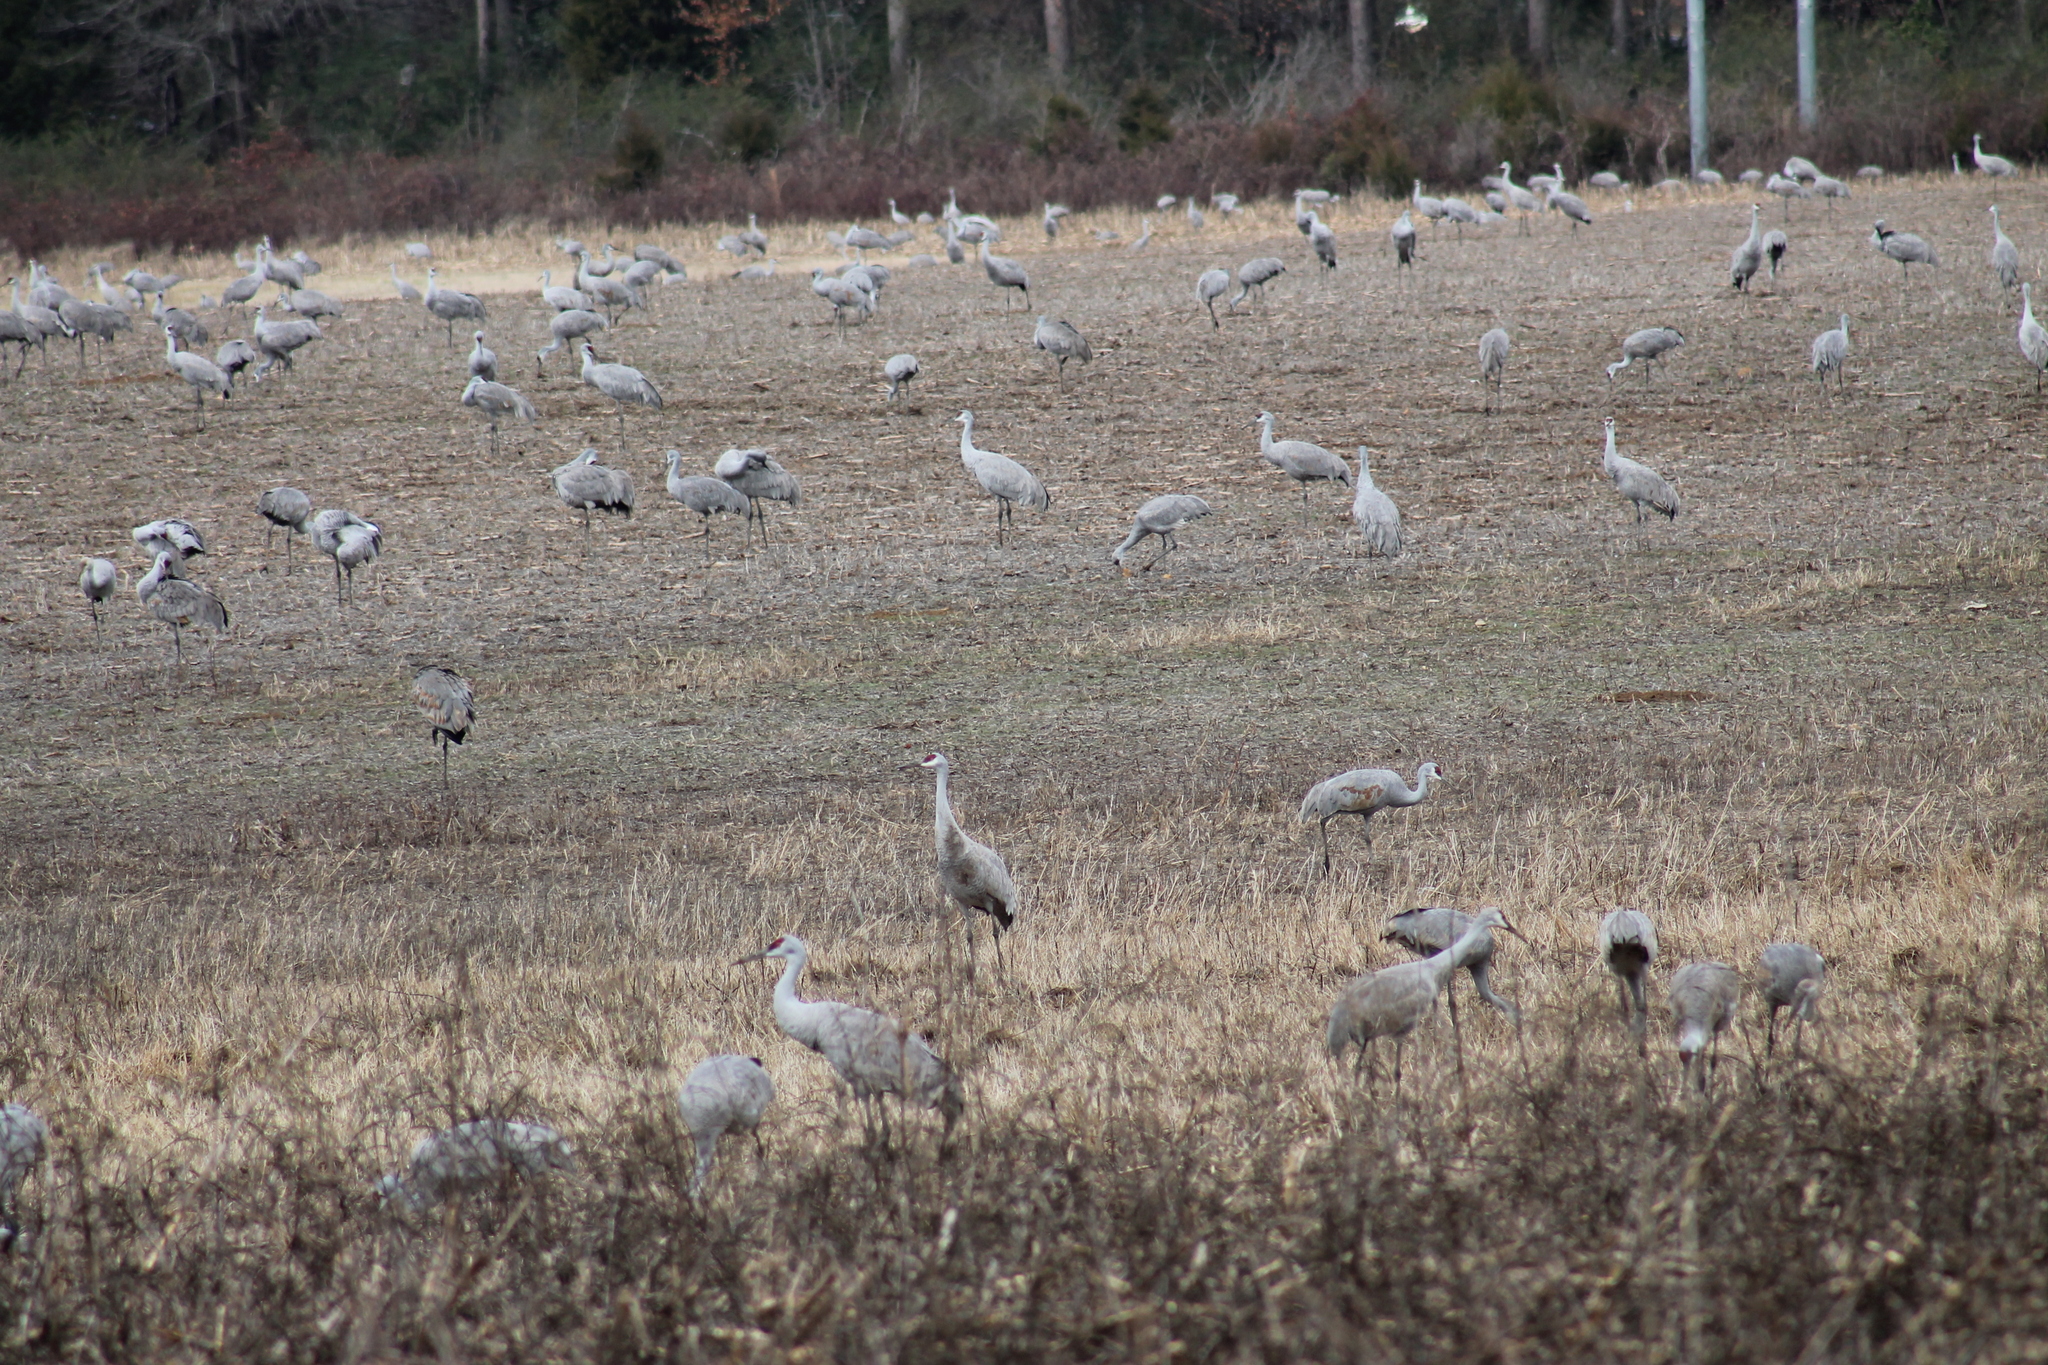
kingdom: Animalia
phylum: Chordata
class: Aves
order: Gruiformes
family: Gruidae
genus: Grus
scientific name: Grus canadensis
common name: Sandhill crane
